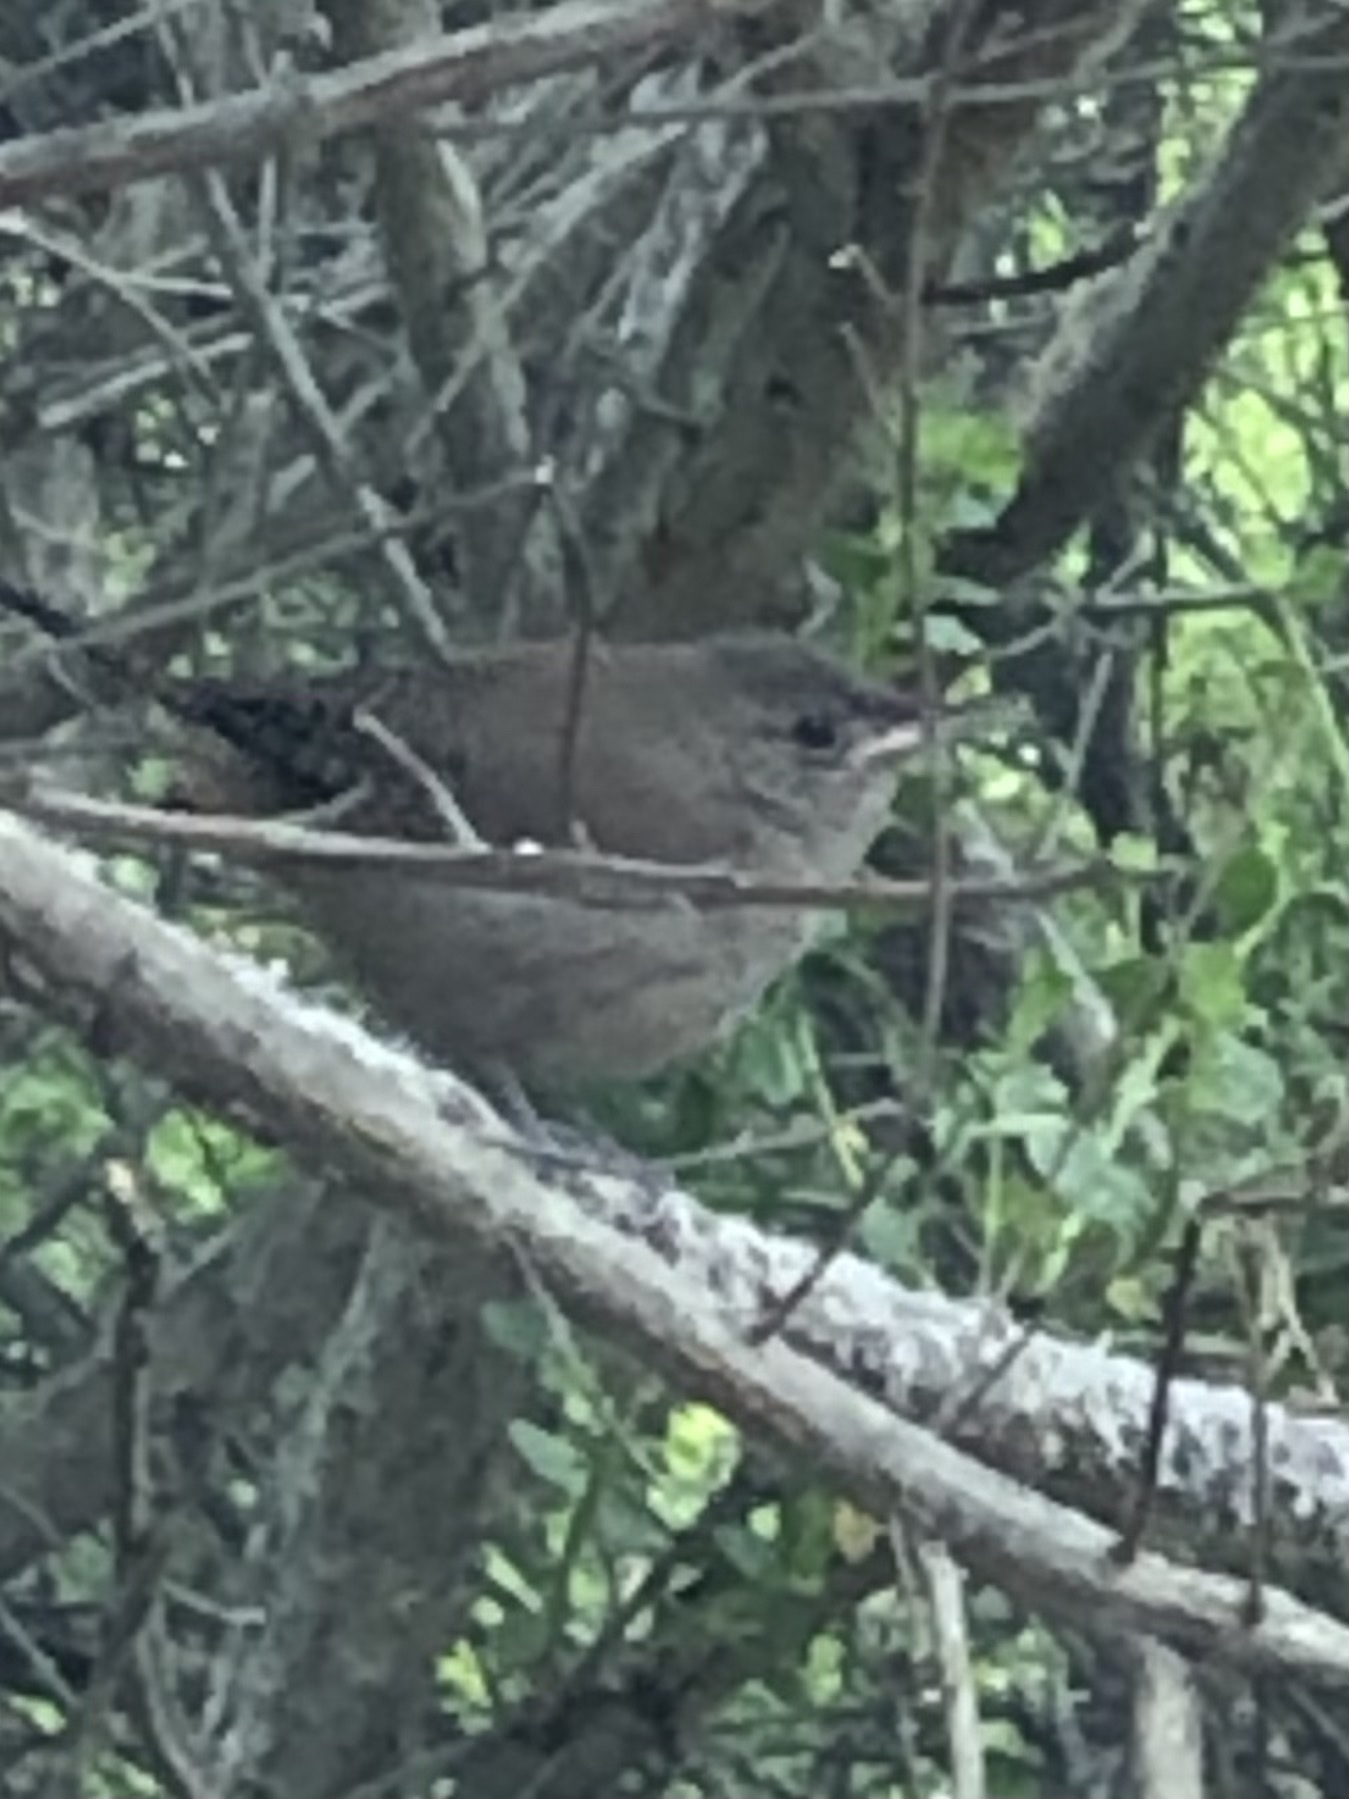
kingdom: Animalia
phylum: Chordata
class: Aves
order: Passeriformes
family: Troglodytidae
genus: Troglodytes
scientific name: Troglodytes aedon
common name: House wren
